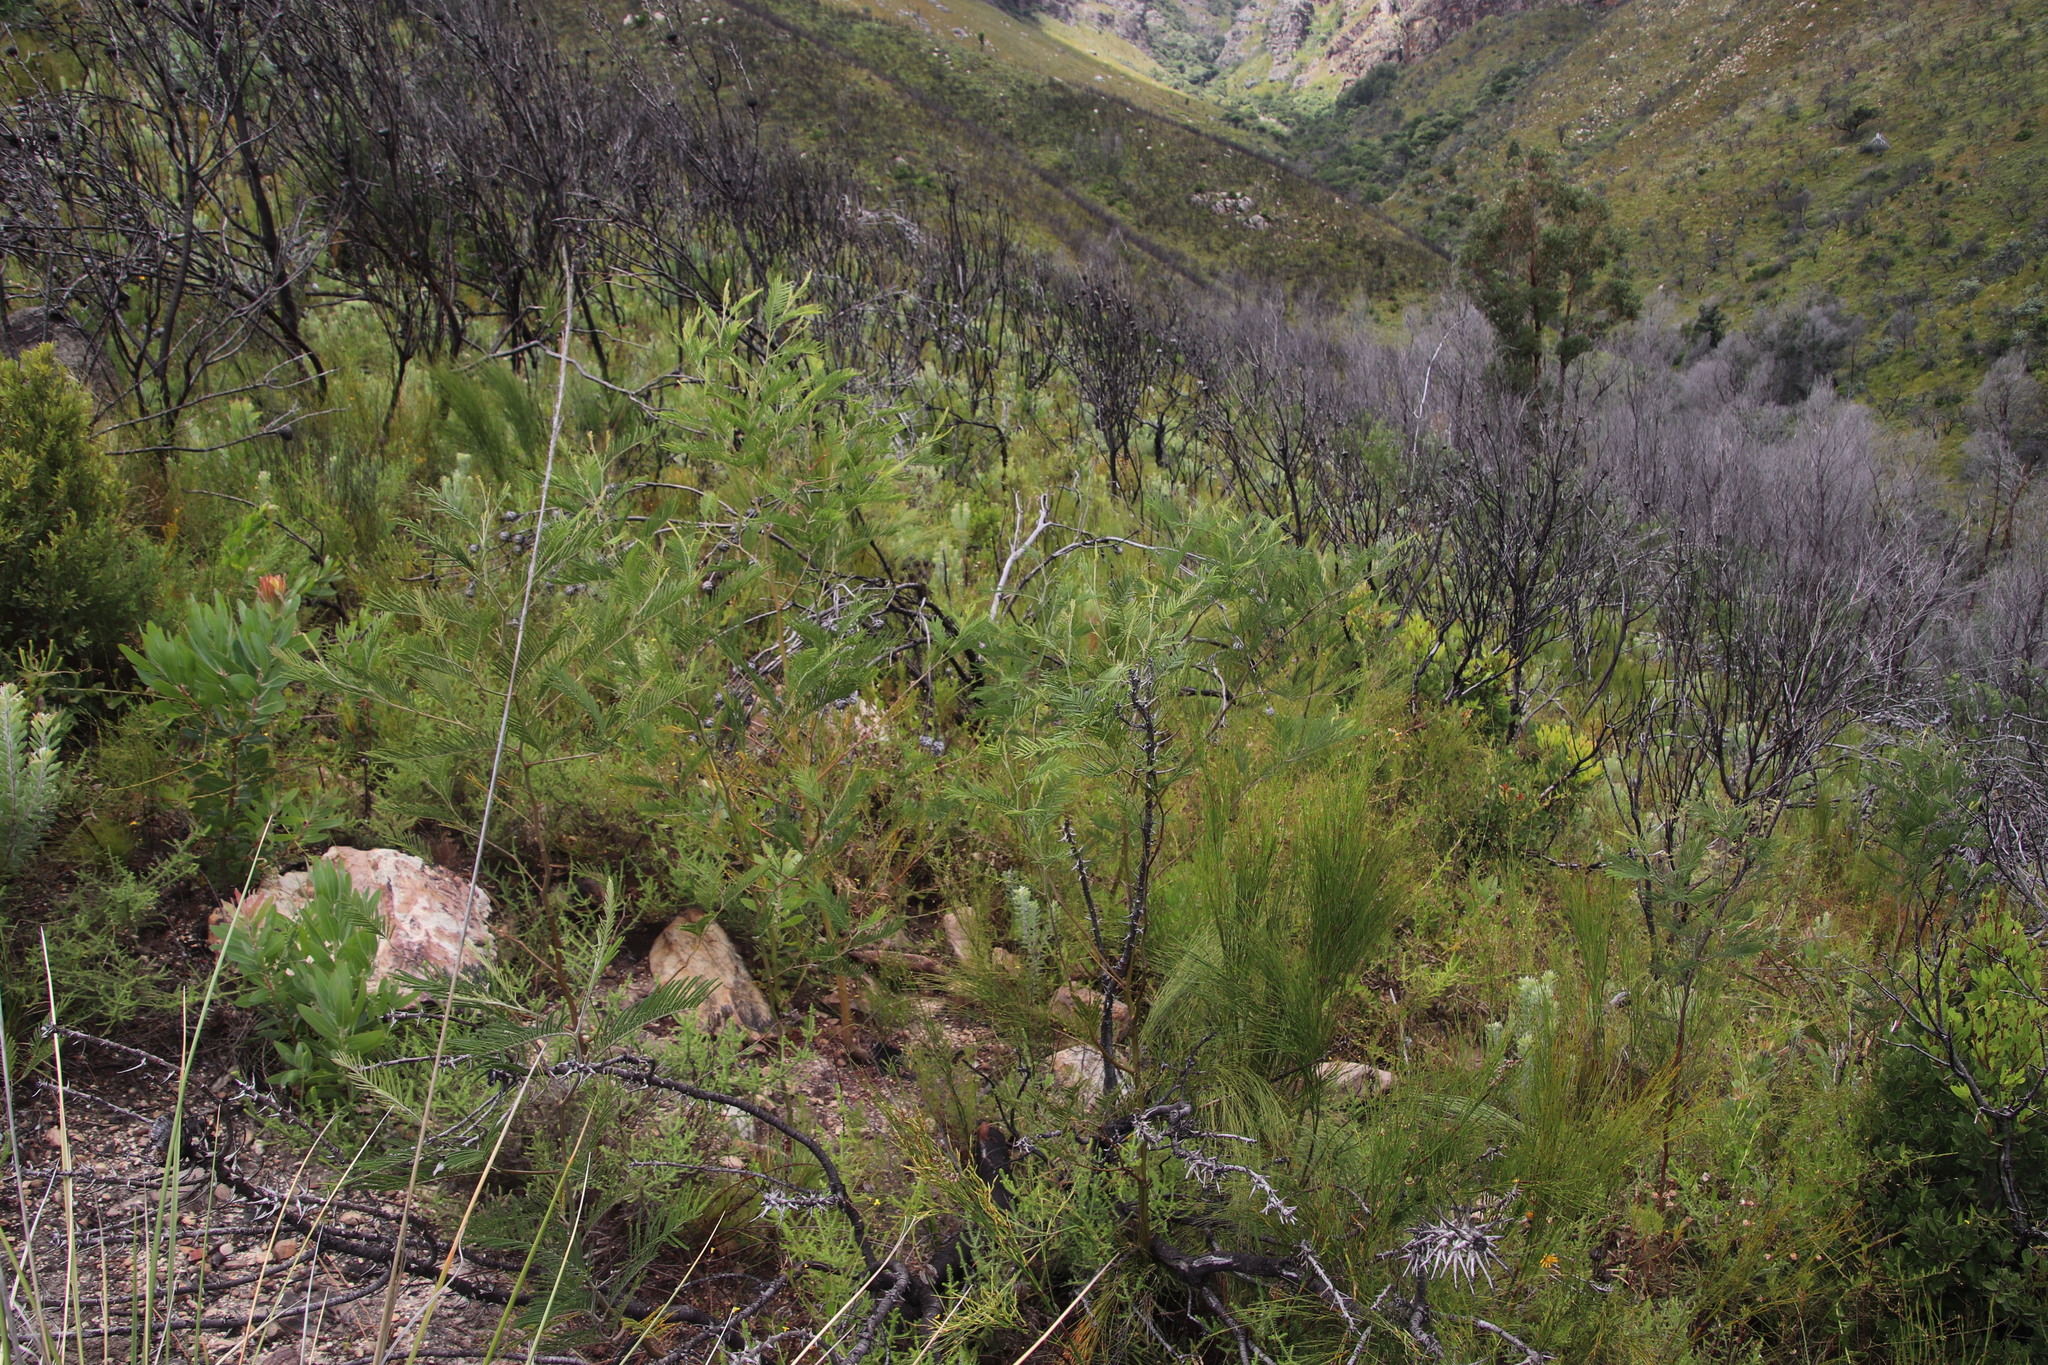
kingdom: Plantae
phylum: Tracheophyta
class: Magnoliopsida
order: Fabales
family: Fabaceae
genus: Acacia
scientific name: Acacia mearnsii
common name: Black wattle
